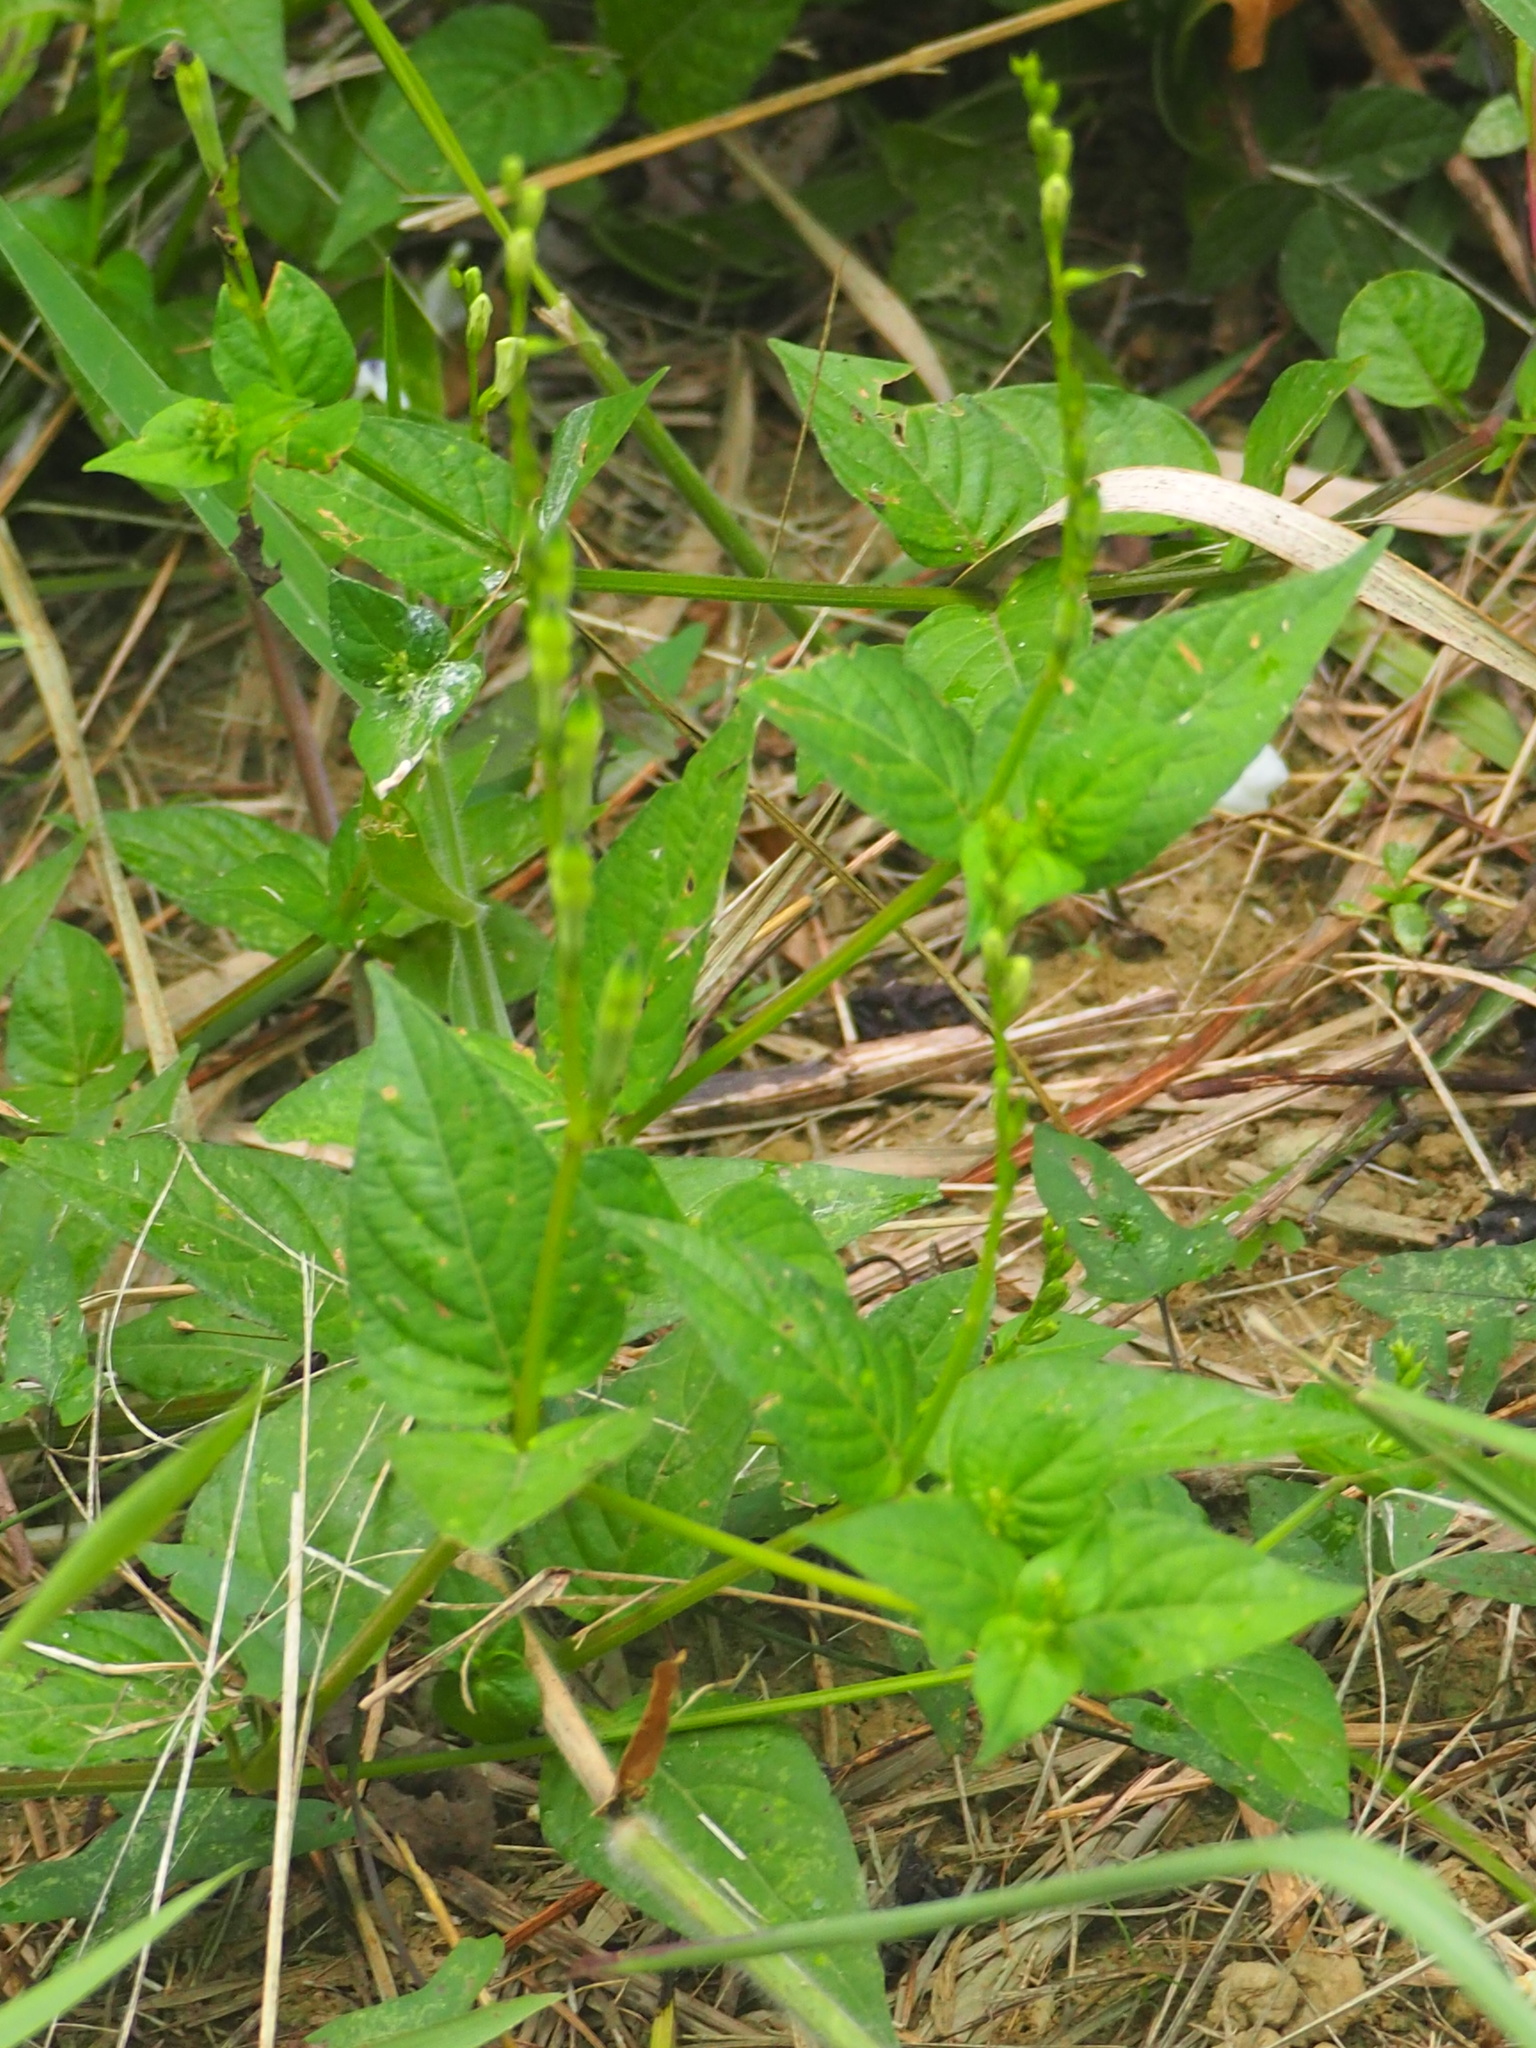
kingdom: Plantae
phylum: Tracheophyta
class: Magnoliopsida
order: Lamiales
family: Acanthaceae
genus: Asystasia
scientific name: Asystasia intrusa
